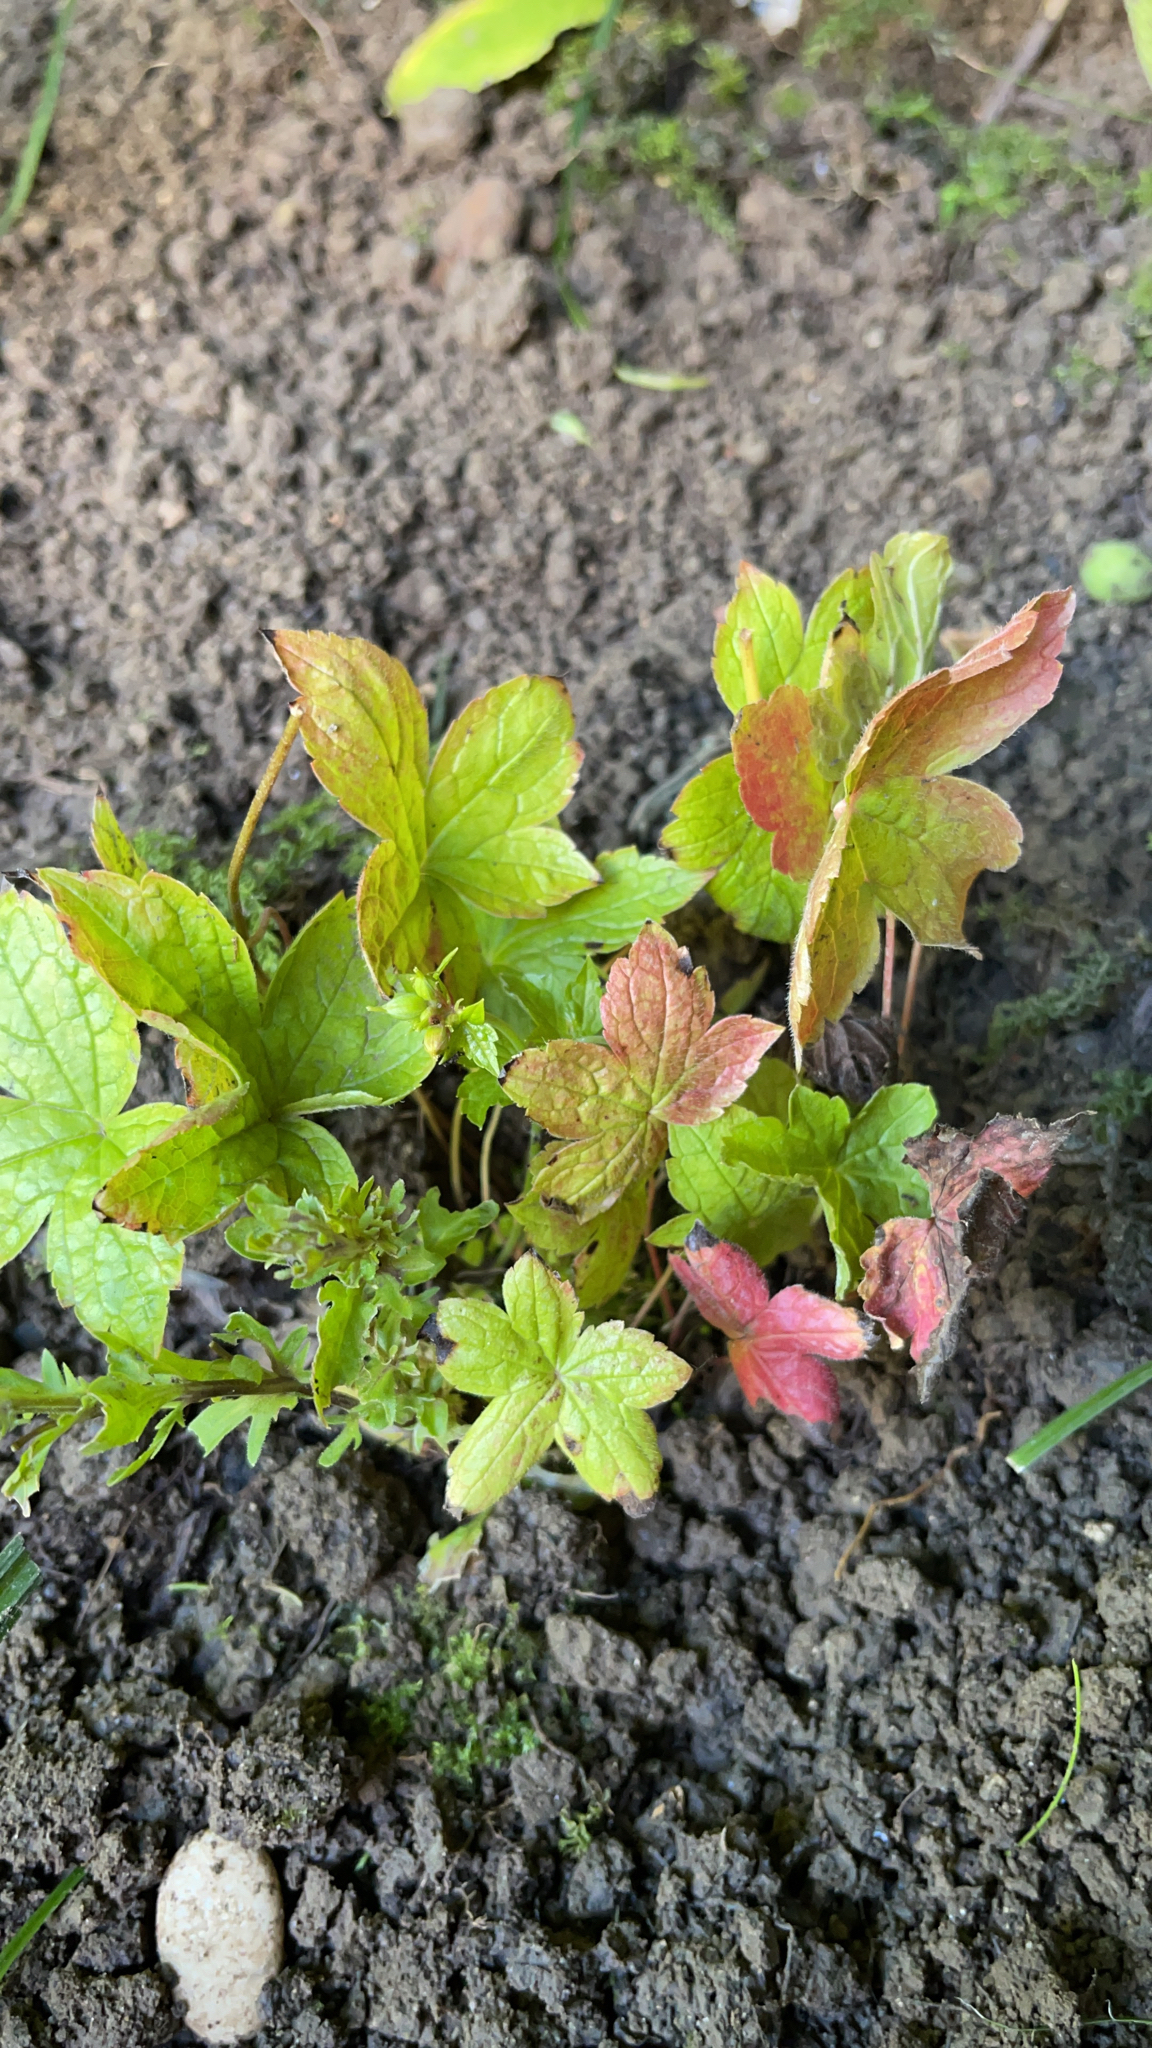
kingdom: Plantae
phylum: Tracheophyta
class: Magnoliopsida
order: Geraniales
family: Geraniaceae
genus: Geranium
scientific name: Geranium nodosum
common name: Knotted crane's-bill
